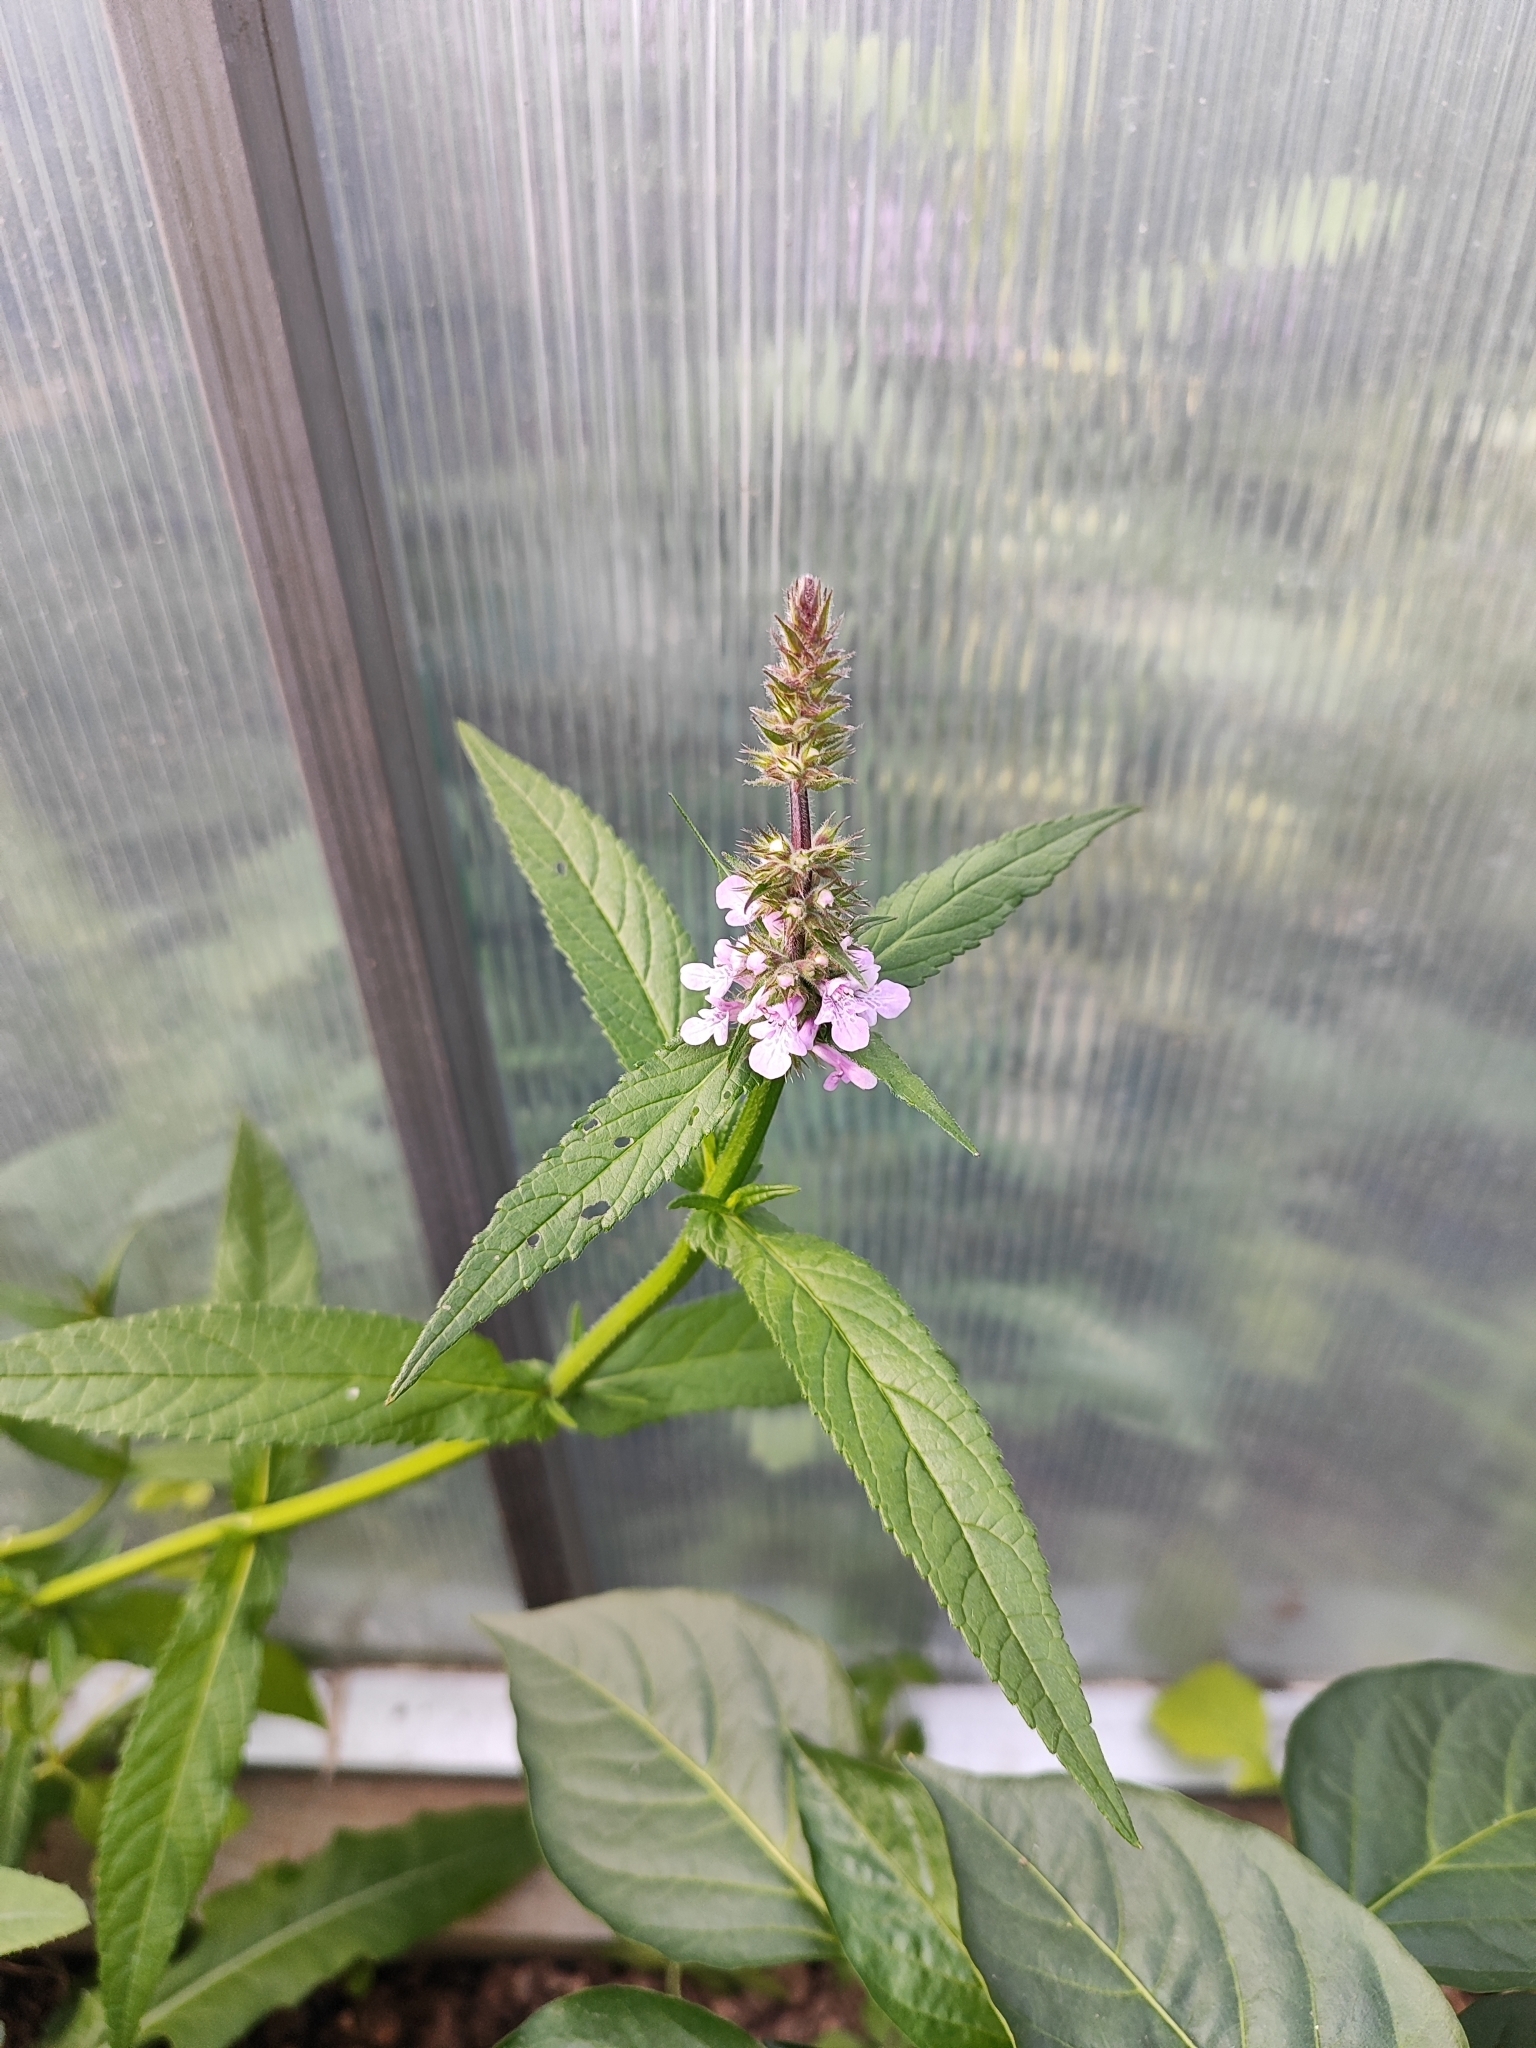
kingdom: Plantae
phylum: Tracheophyta
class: Magnoliopsida
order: Lamiales
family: Lamiaceae
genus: Stachys
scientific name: Stachys palustris
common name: Marsh woundwort
